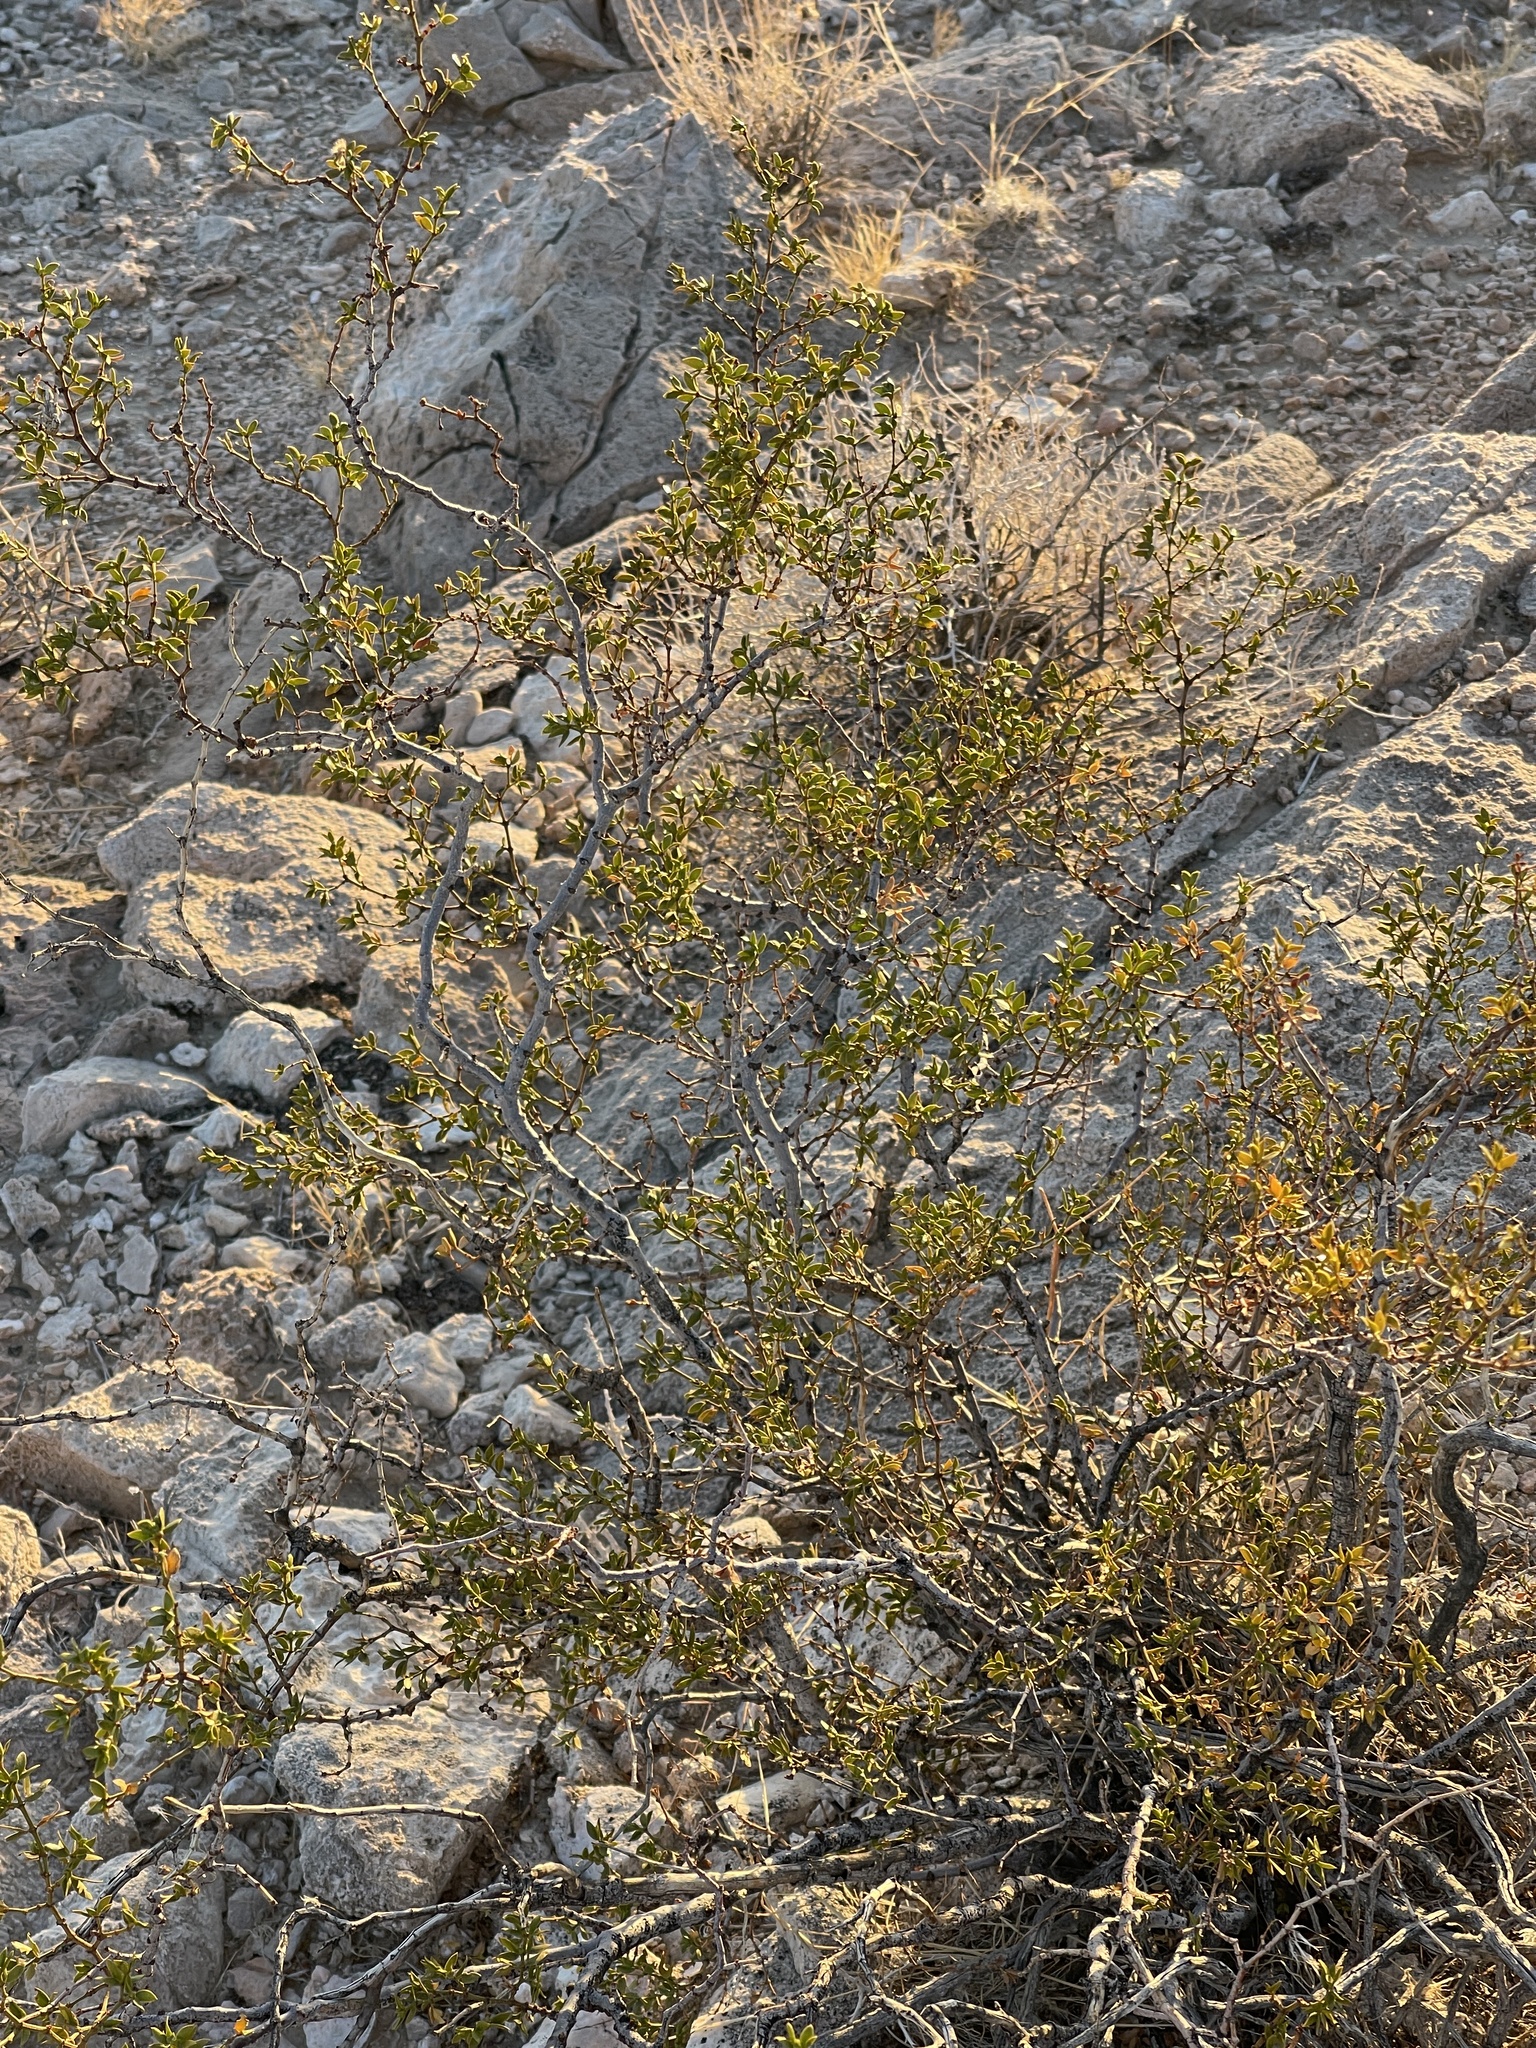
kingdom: Plantae
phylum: Tracheophyta
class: Magnoliopsida
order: Zygophyllales
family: Zygophyllaceae
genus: Larrea
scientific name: Larrea tridentata
